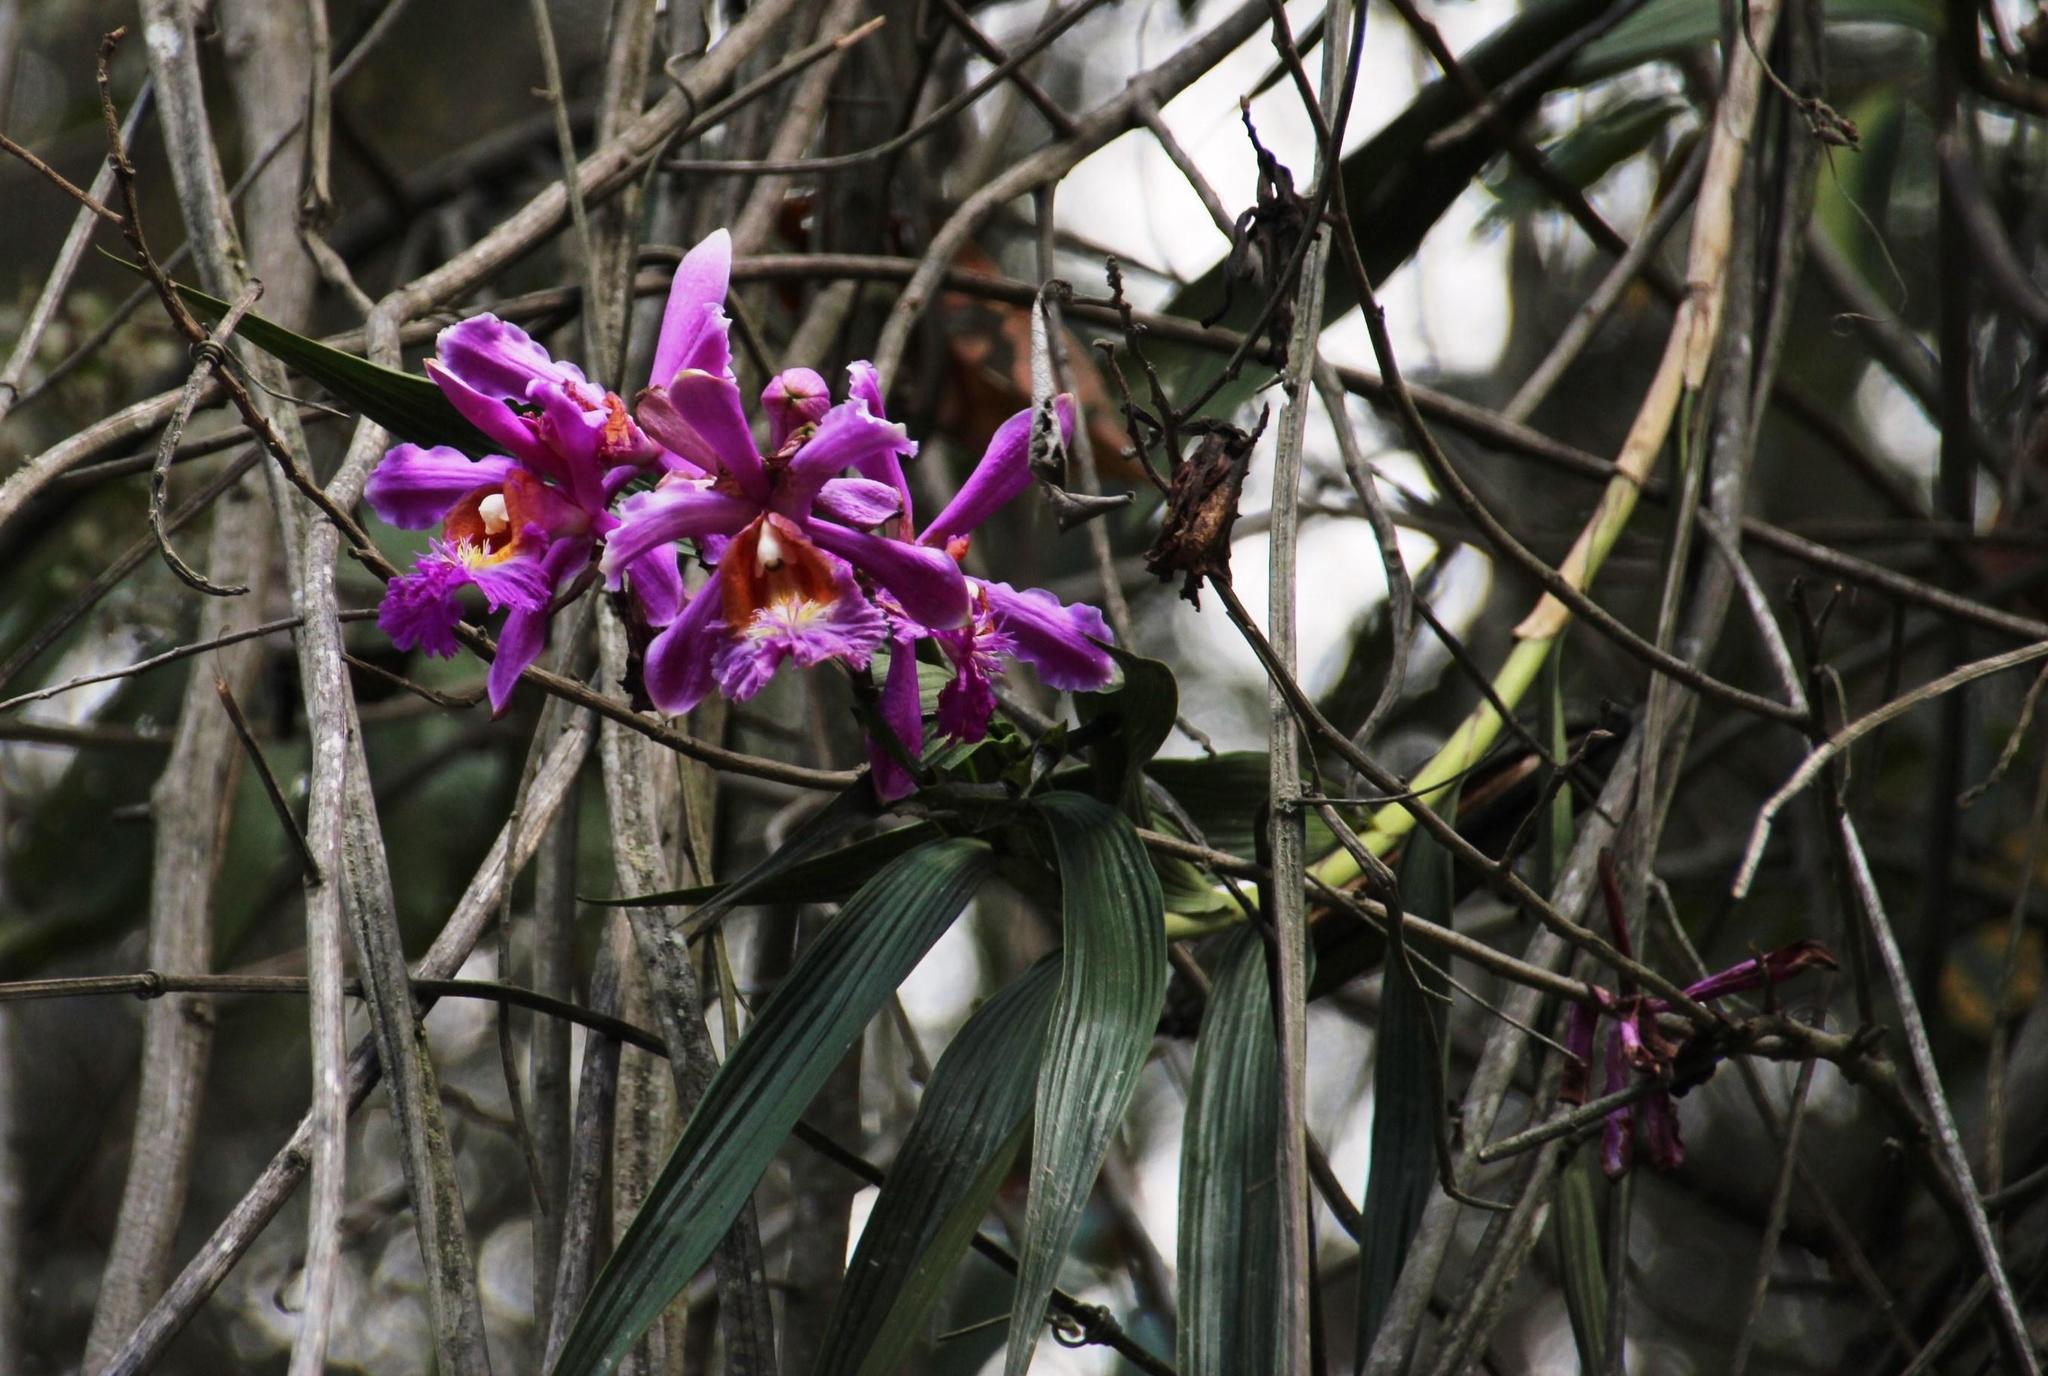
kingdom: Plantae
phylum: Tracheophyta
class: Liliopsida
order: Asparagales
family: Orchidaceae
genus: Sobralia
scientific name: Sobralia dichotoma
